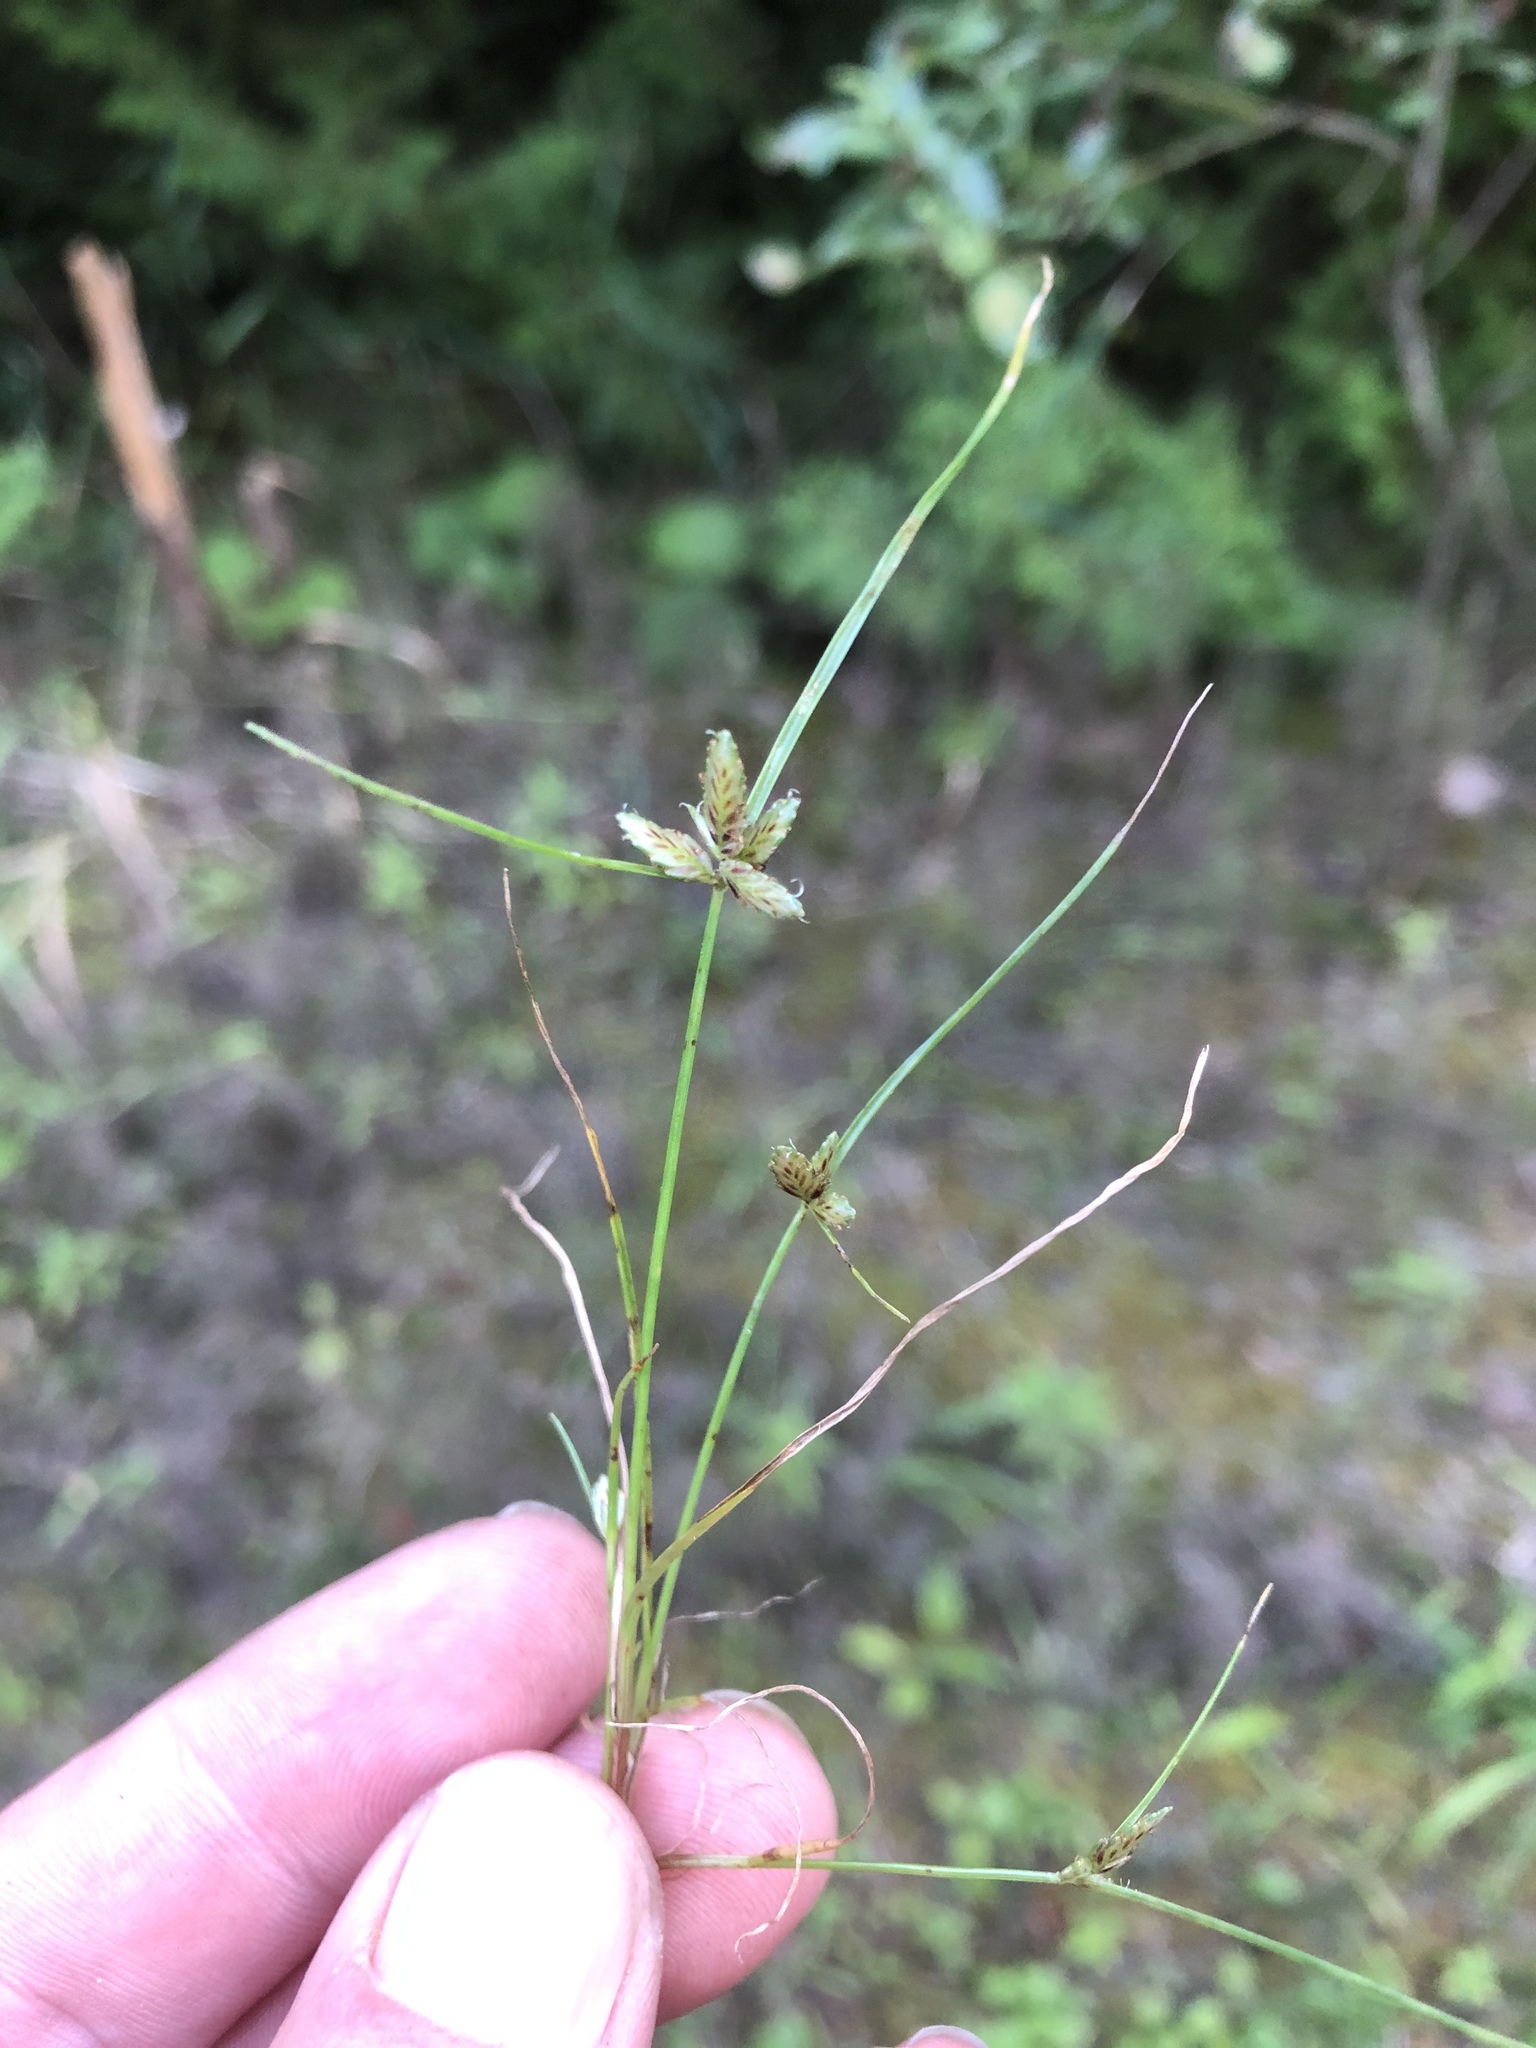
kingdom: Plantae
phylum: Tracheophyta
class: Liliopsida
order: Poales
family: Cyperaceae
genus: Cyperus
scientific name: Cyperus bipartitus
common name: Brook flatsedge
